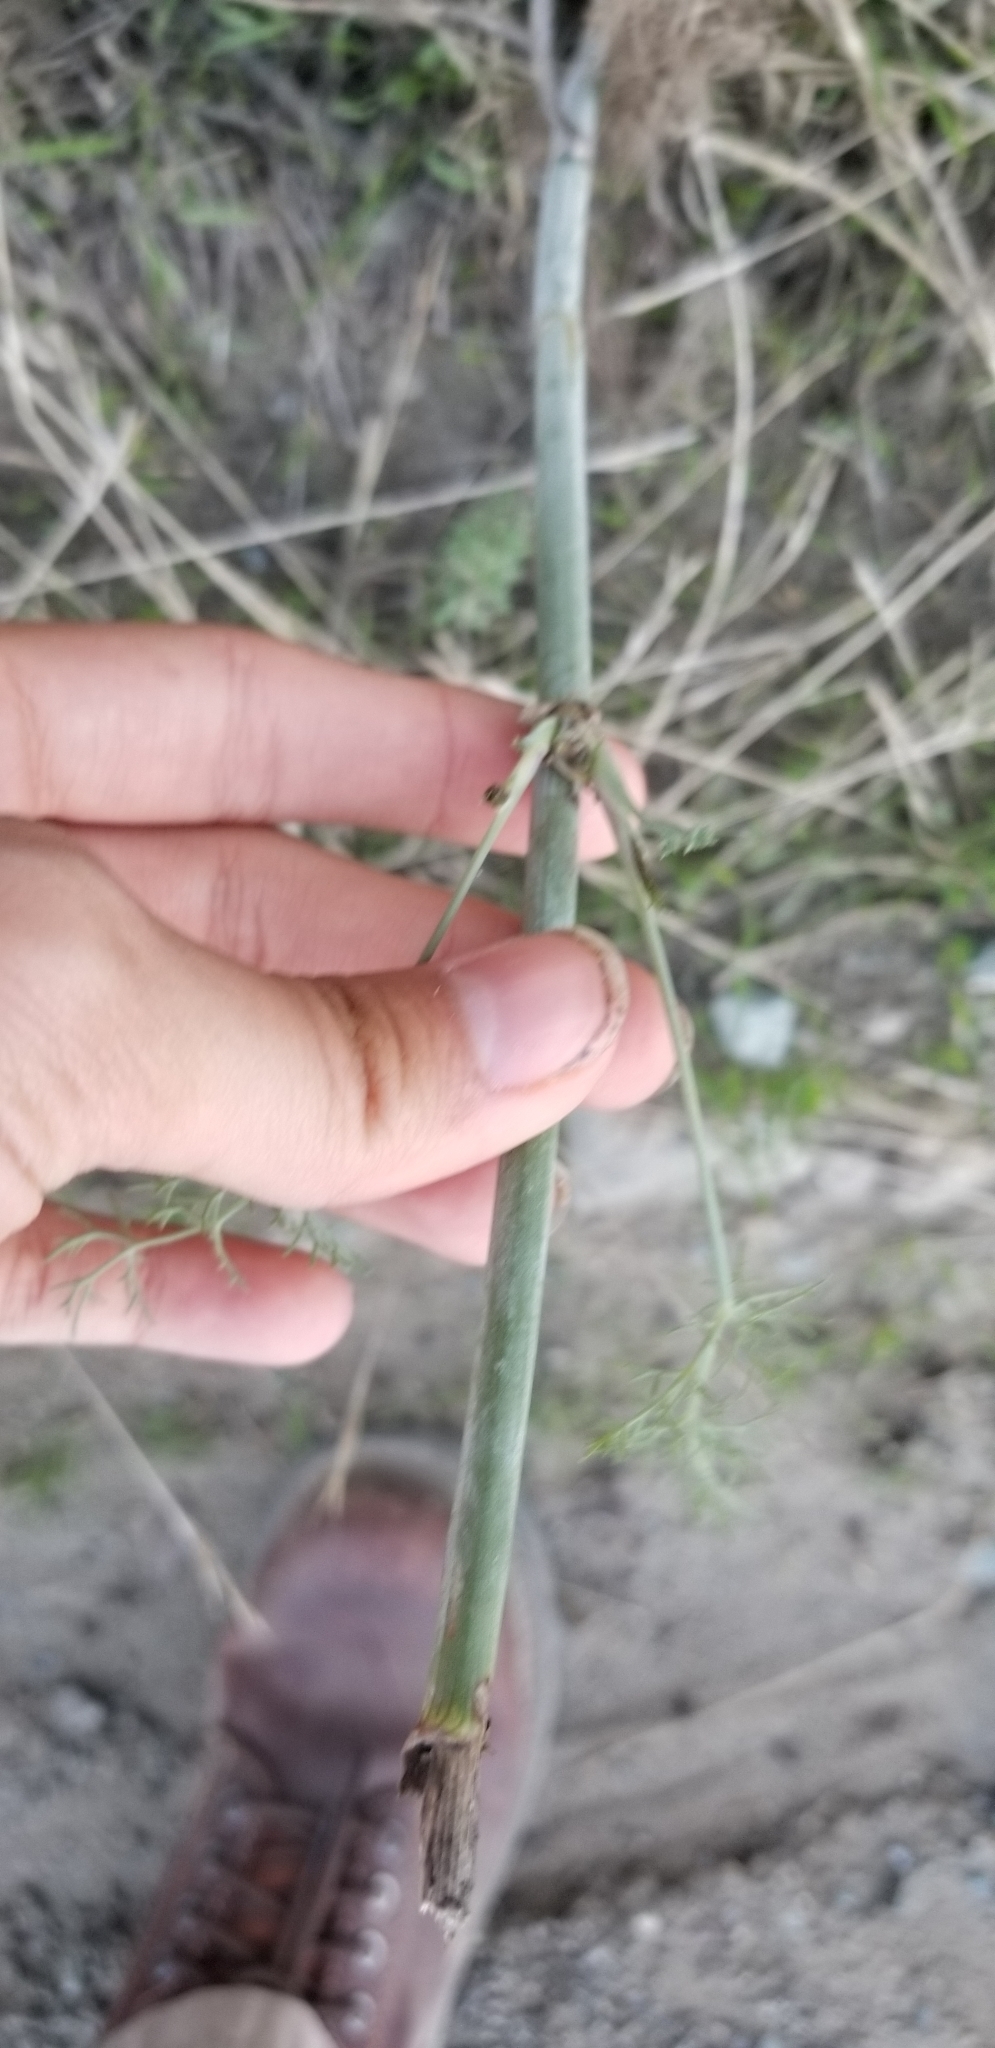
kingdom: Plantae
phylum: Tracheophyta
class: Magnoliopsida
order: Apiales
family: Apiaceae
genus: Foeniculum
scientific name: Foeniculum vulgare
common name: Fennel
